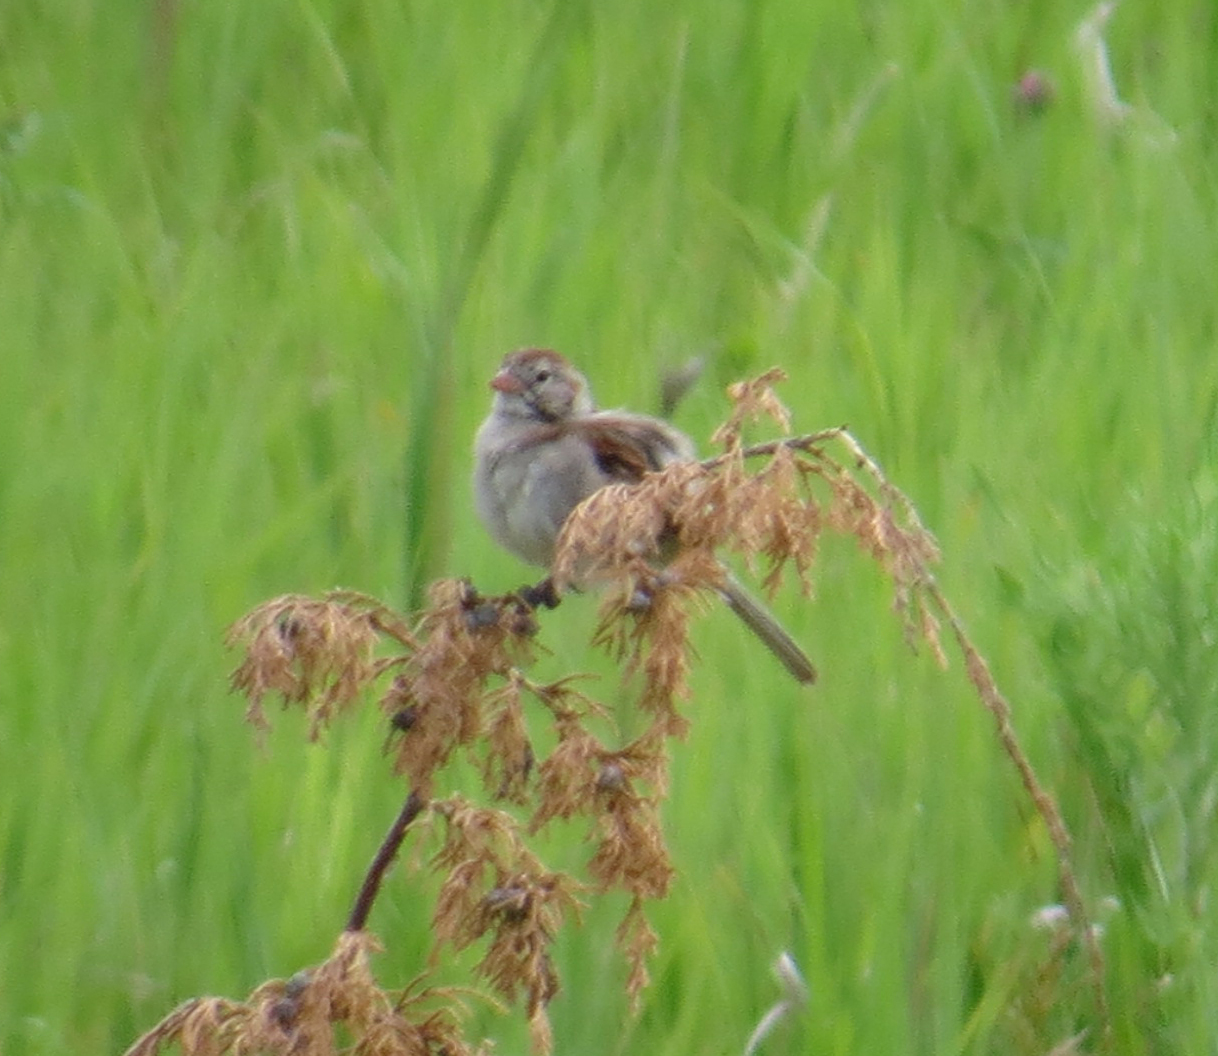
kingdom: Animalia
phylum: Chordata
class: Aves
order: Passeriformes
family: Passerellidae
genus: Spizella
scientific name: Spizella pusilla
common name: Field sparrow
